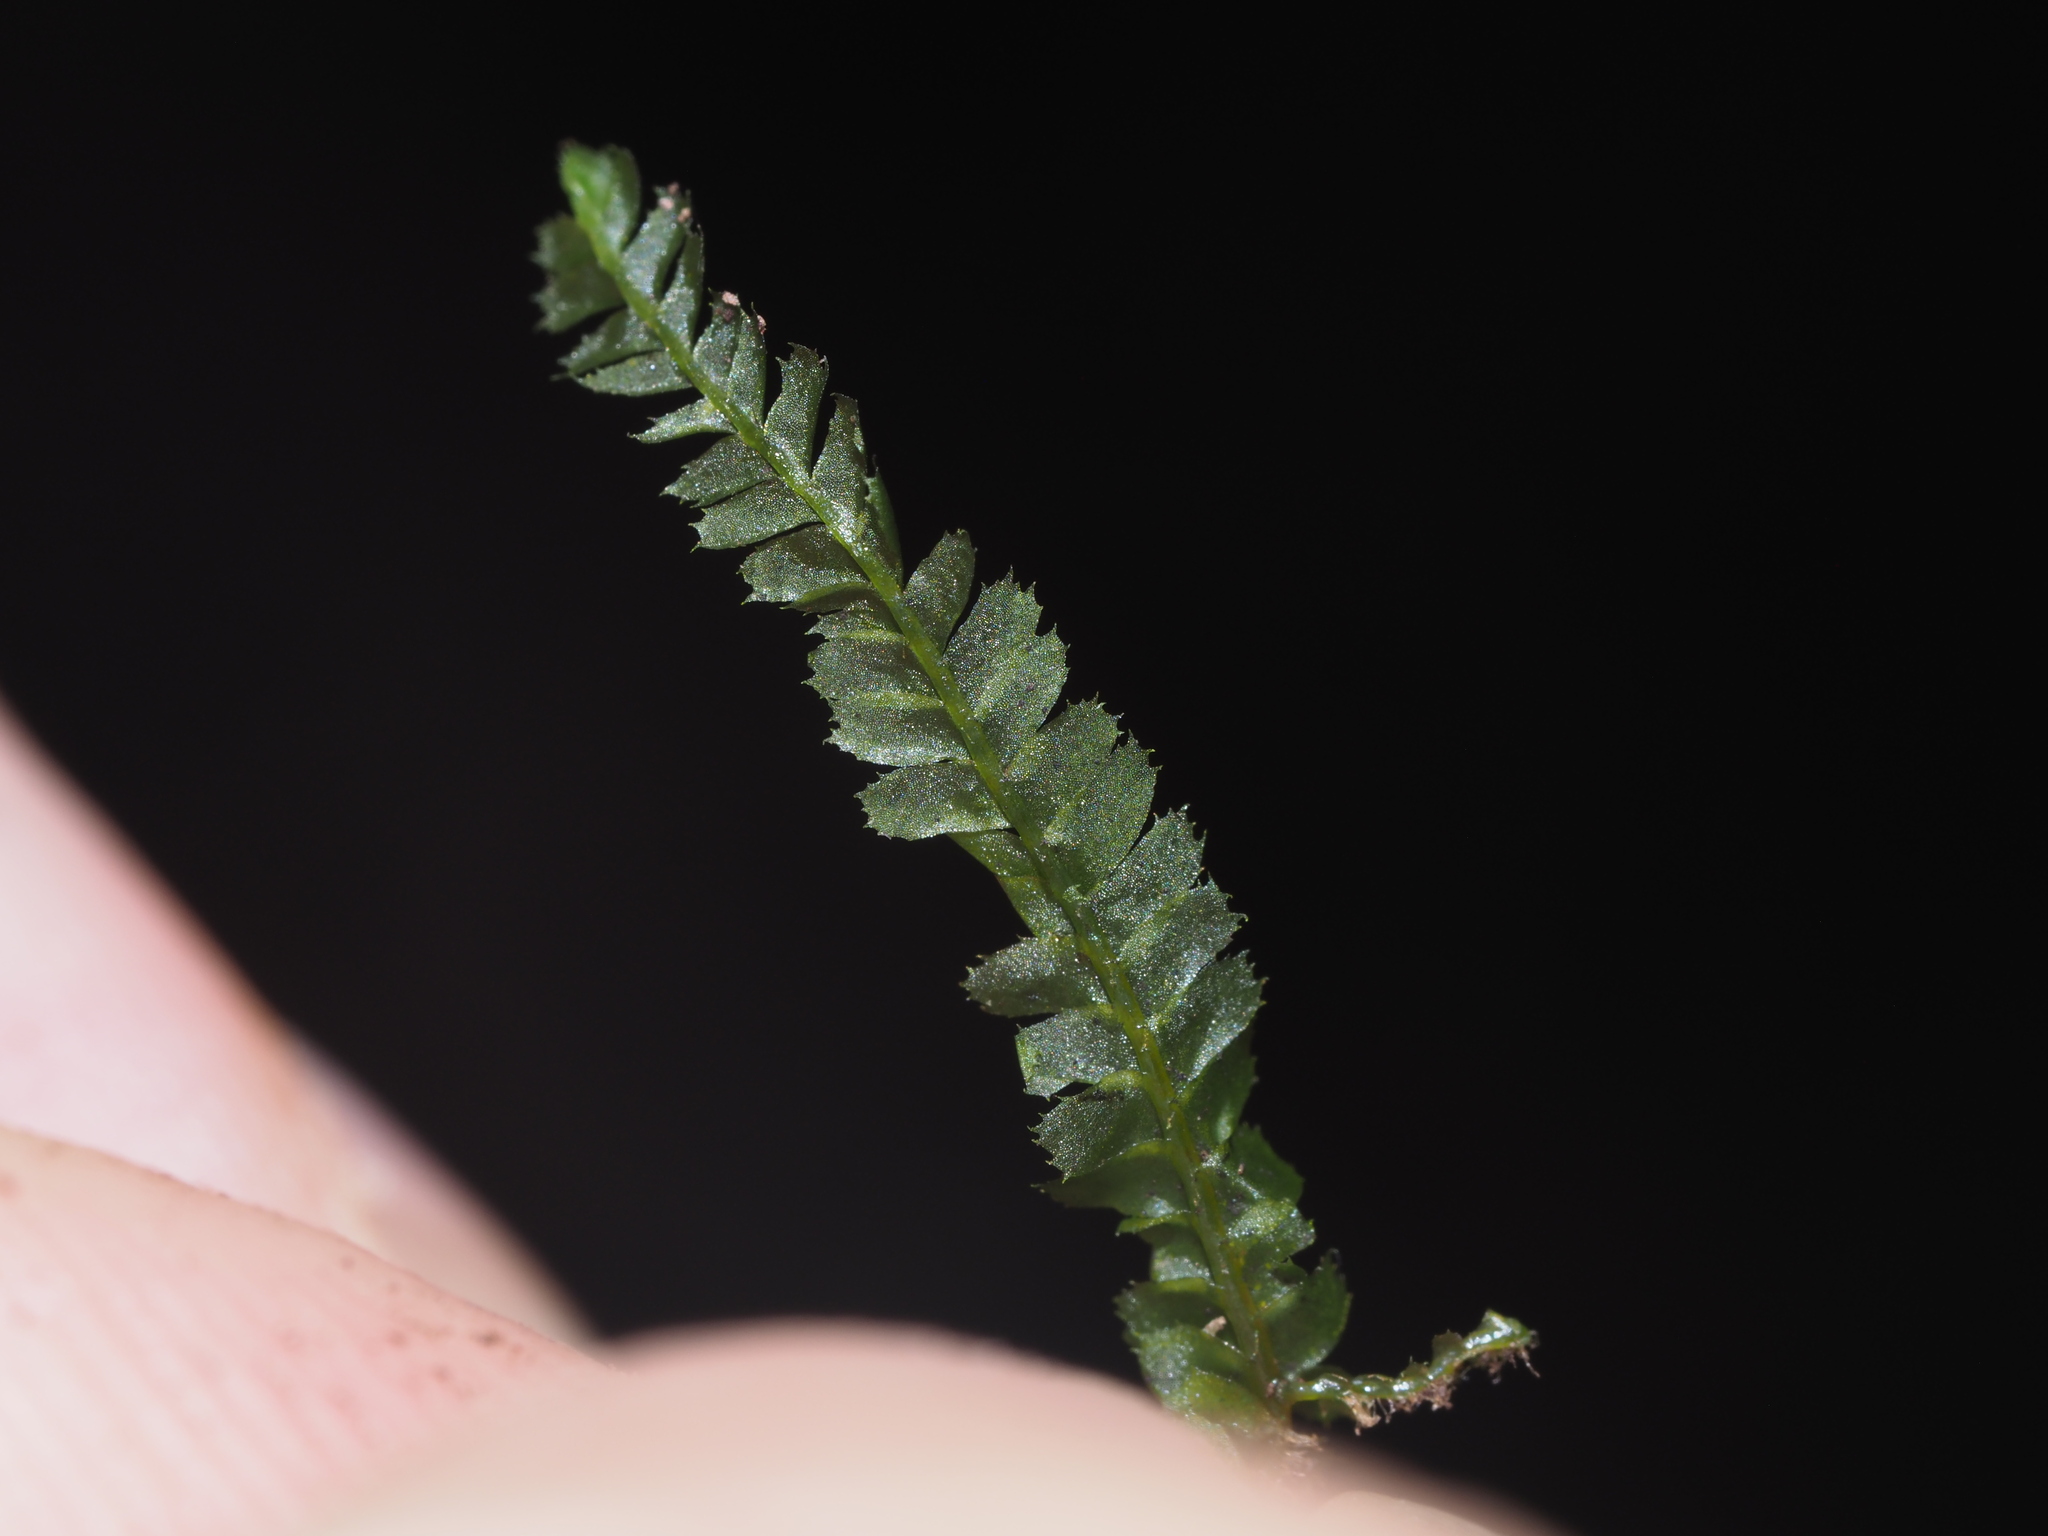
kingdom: Plantae
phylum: Marchantiophyta
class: Jungermanniopsida
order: Jungermanniales
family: Plagiochilaceae
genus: Plagiochila
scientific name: Plagiochila grossispina
